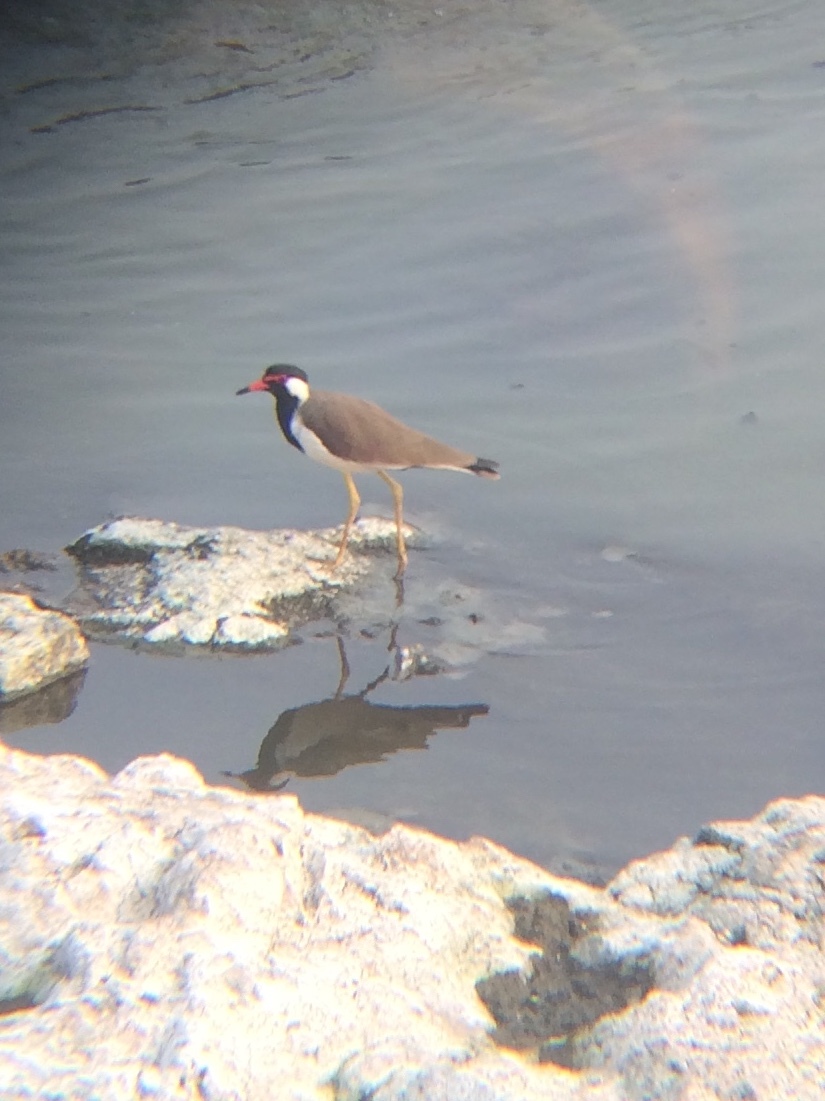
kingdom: Animalia
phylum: Chordata
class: Aves
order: Charadriiformes
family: Charadriidae
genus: Vanellus
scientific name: Vanellus indicus
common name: Red-wattled lapwing
